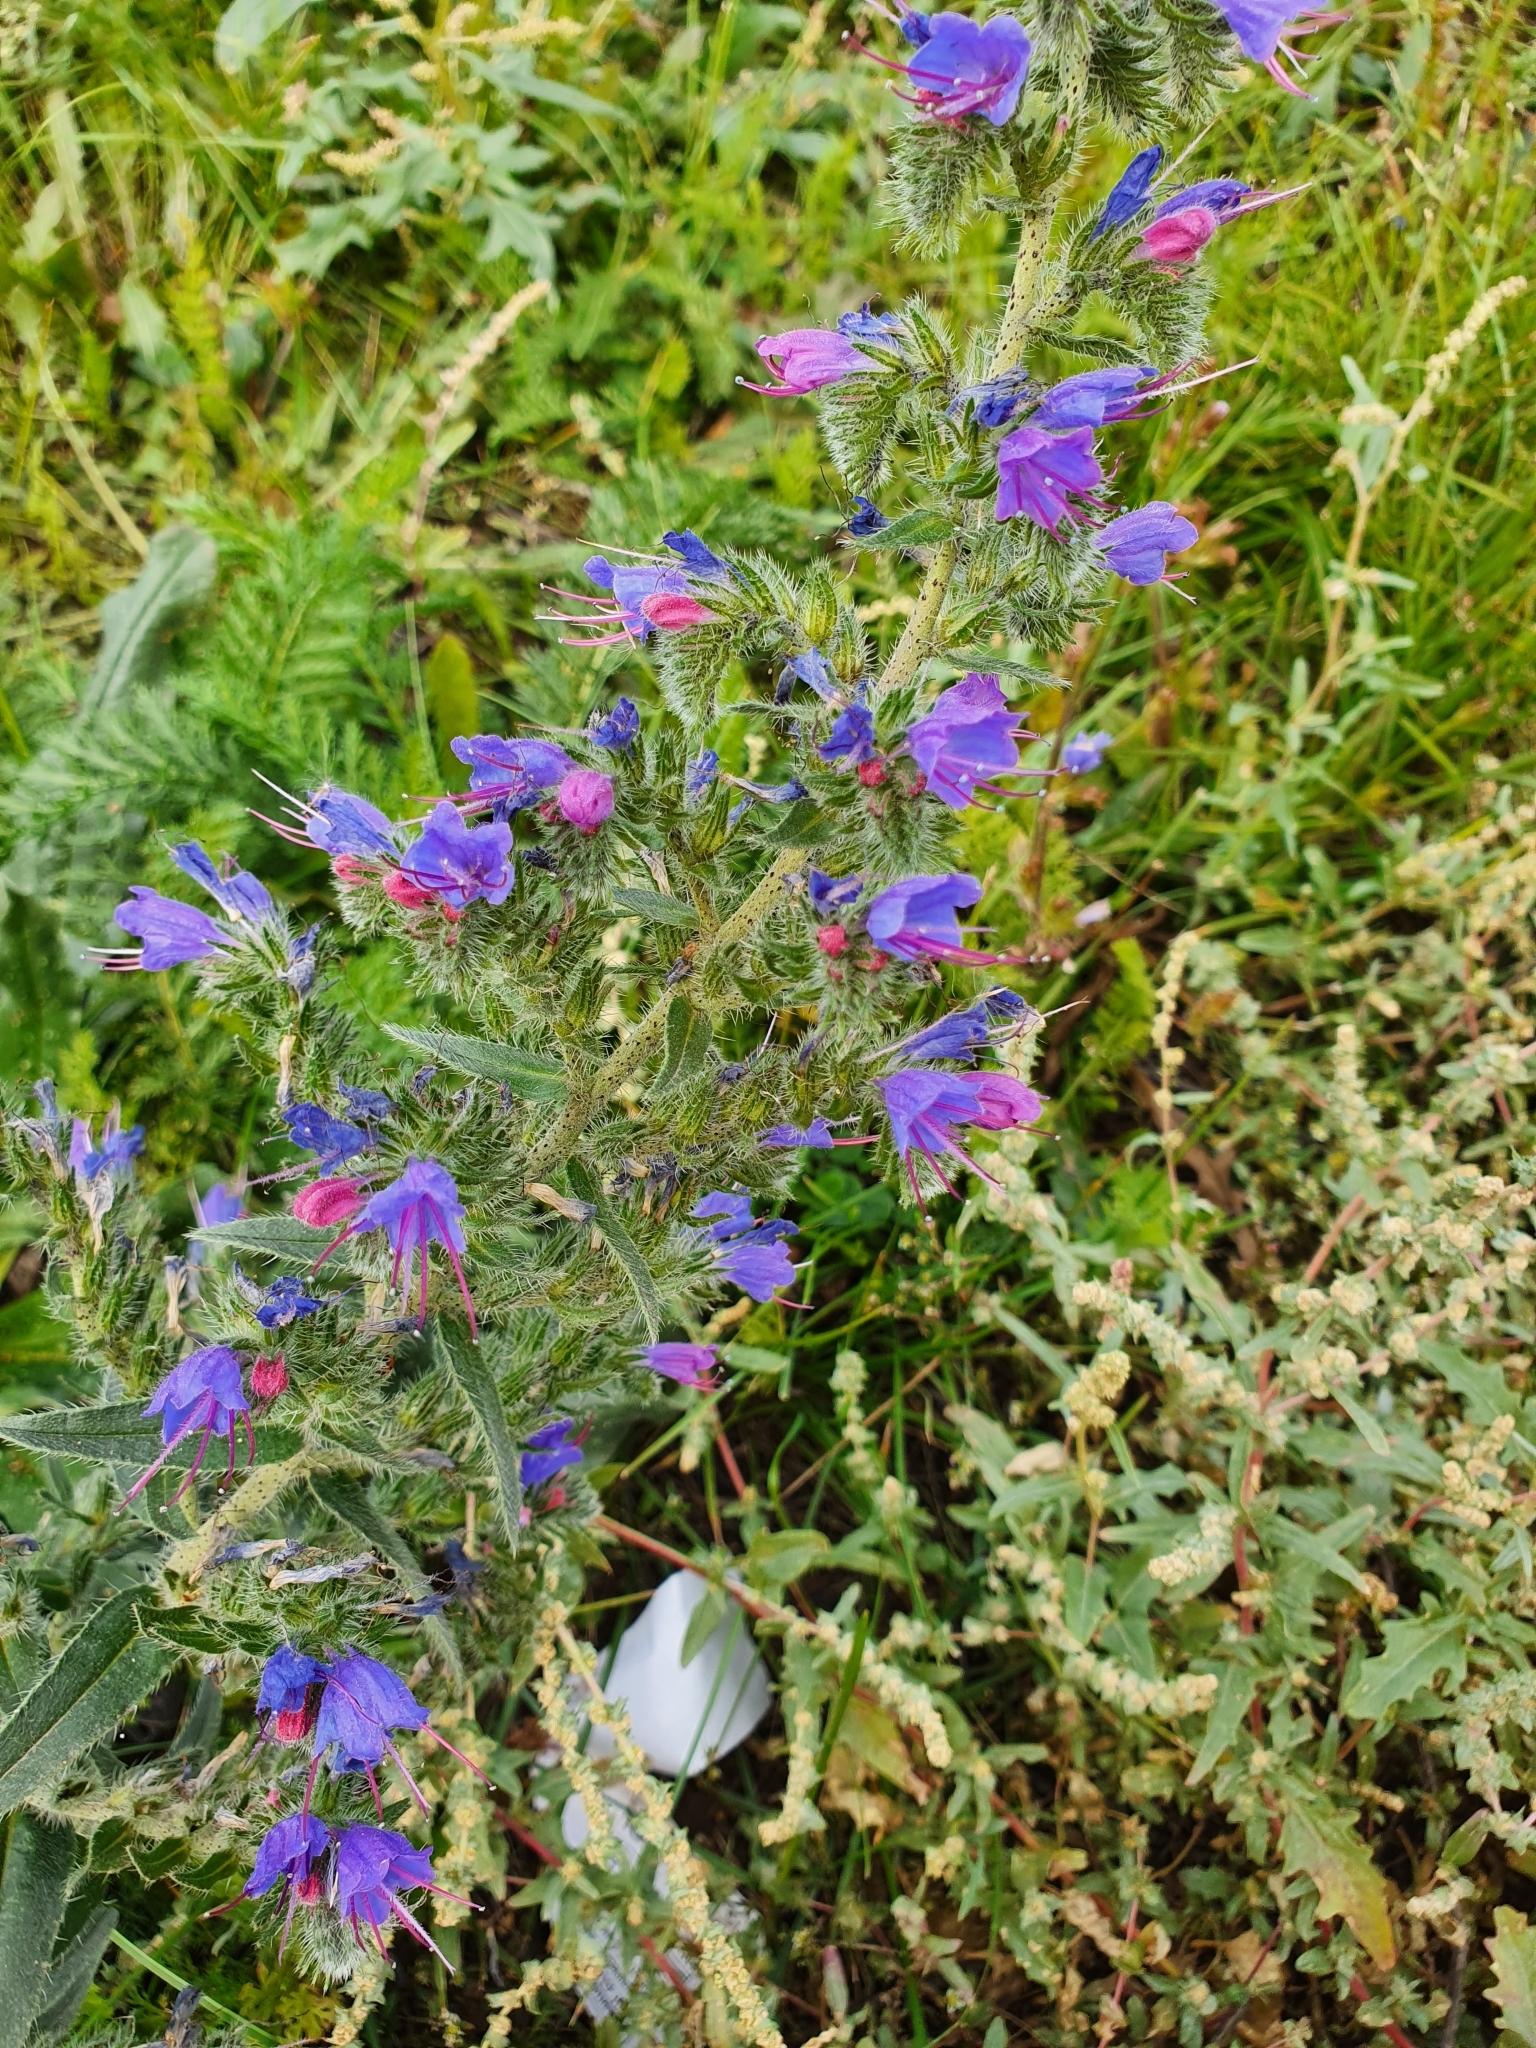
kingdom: Plantae
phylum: Tracheophyta
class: Magnoliopsida
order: Boraginales
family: Boraginaceae
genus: Echium
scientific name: Echium vulgare
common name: Common viper's bugloss
